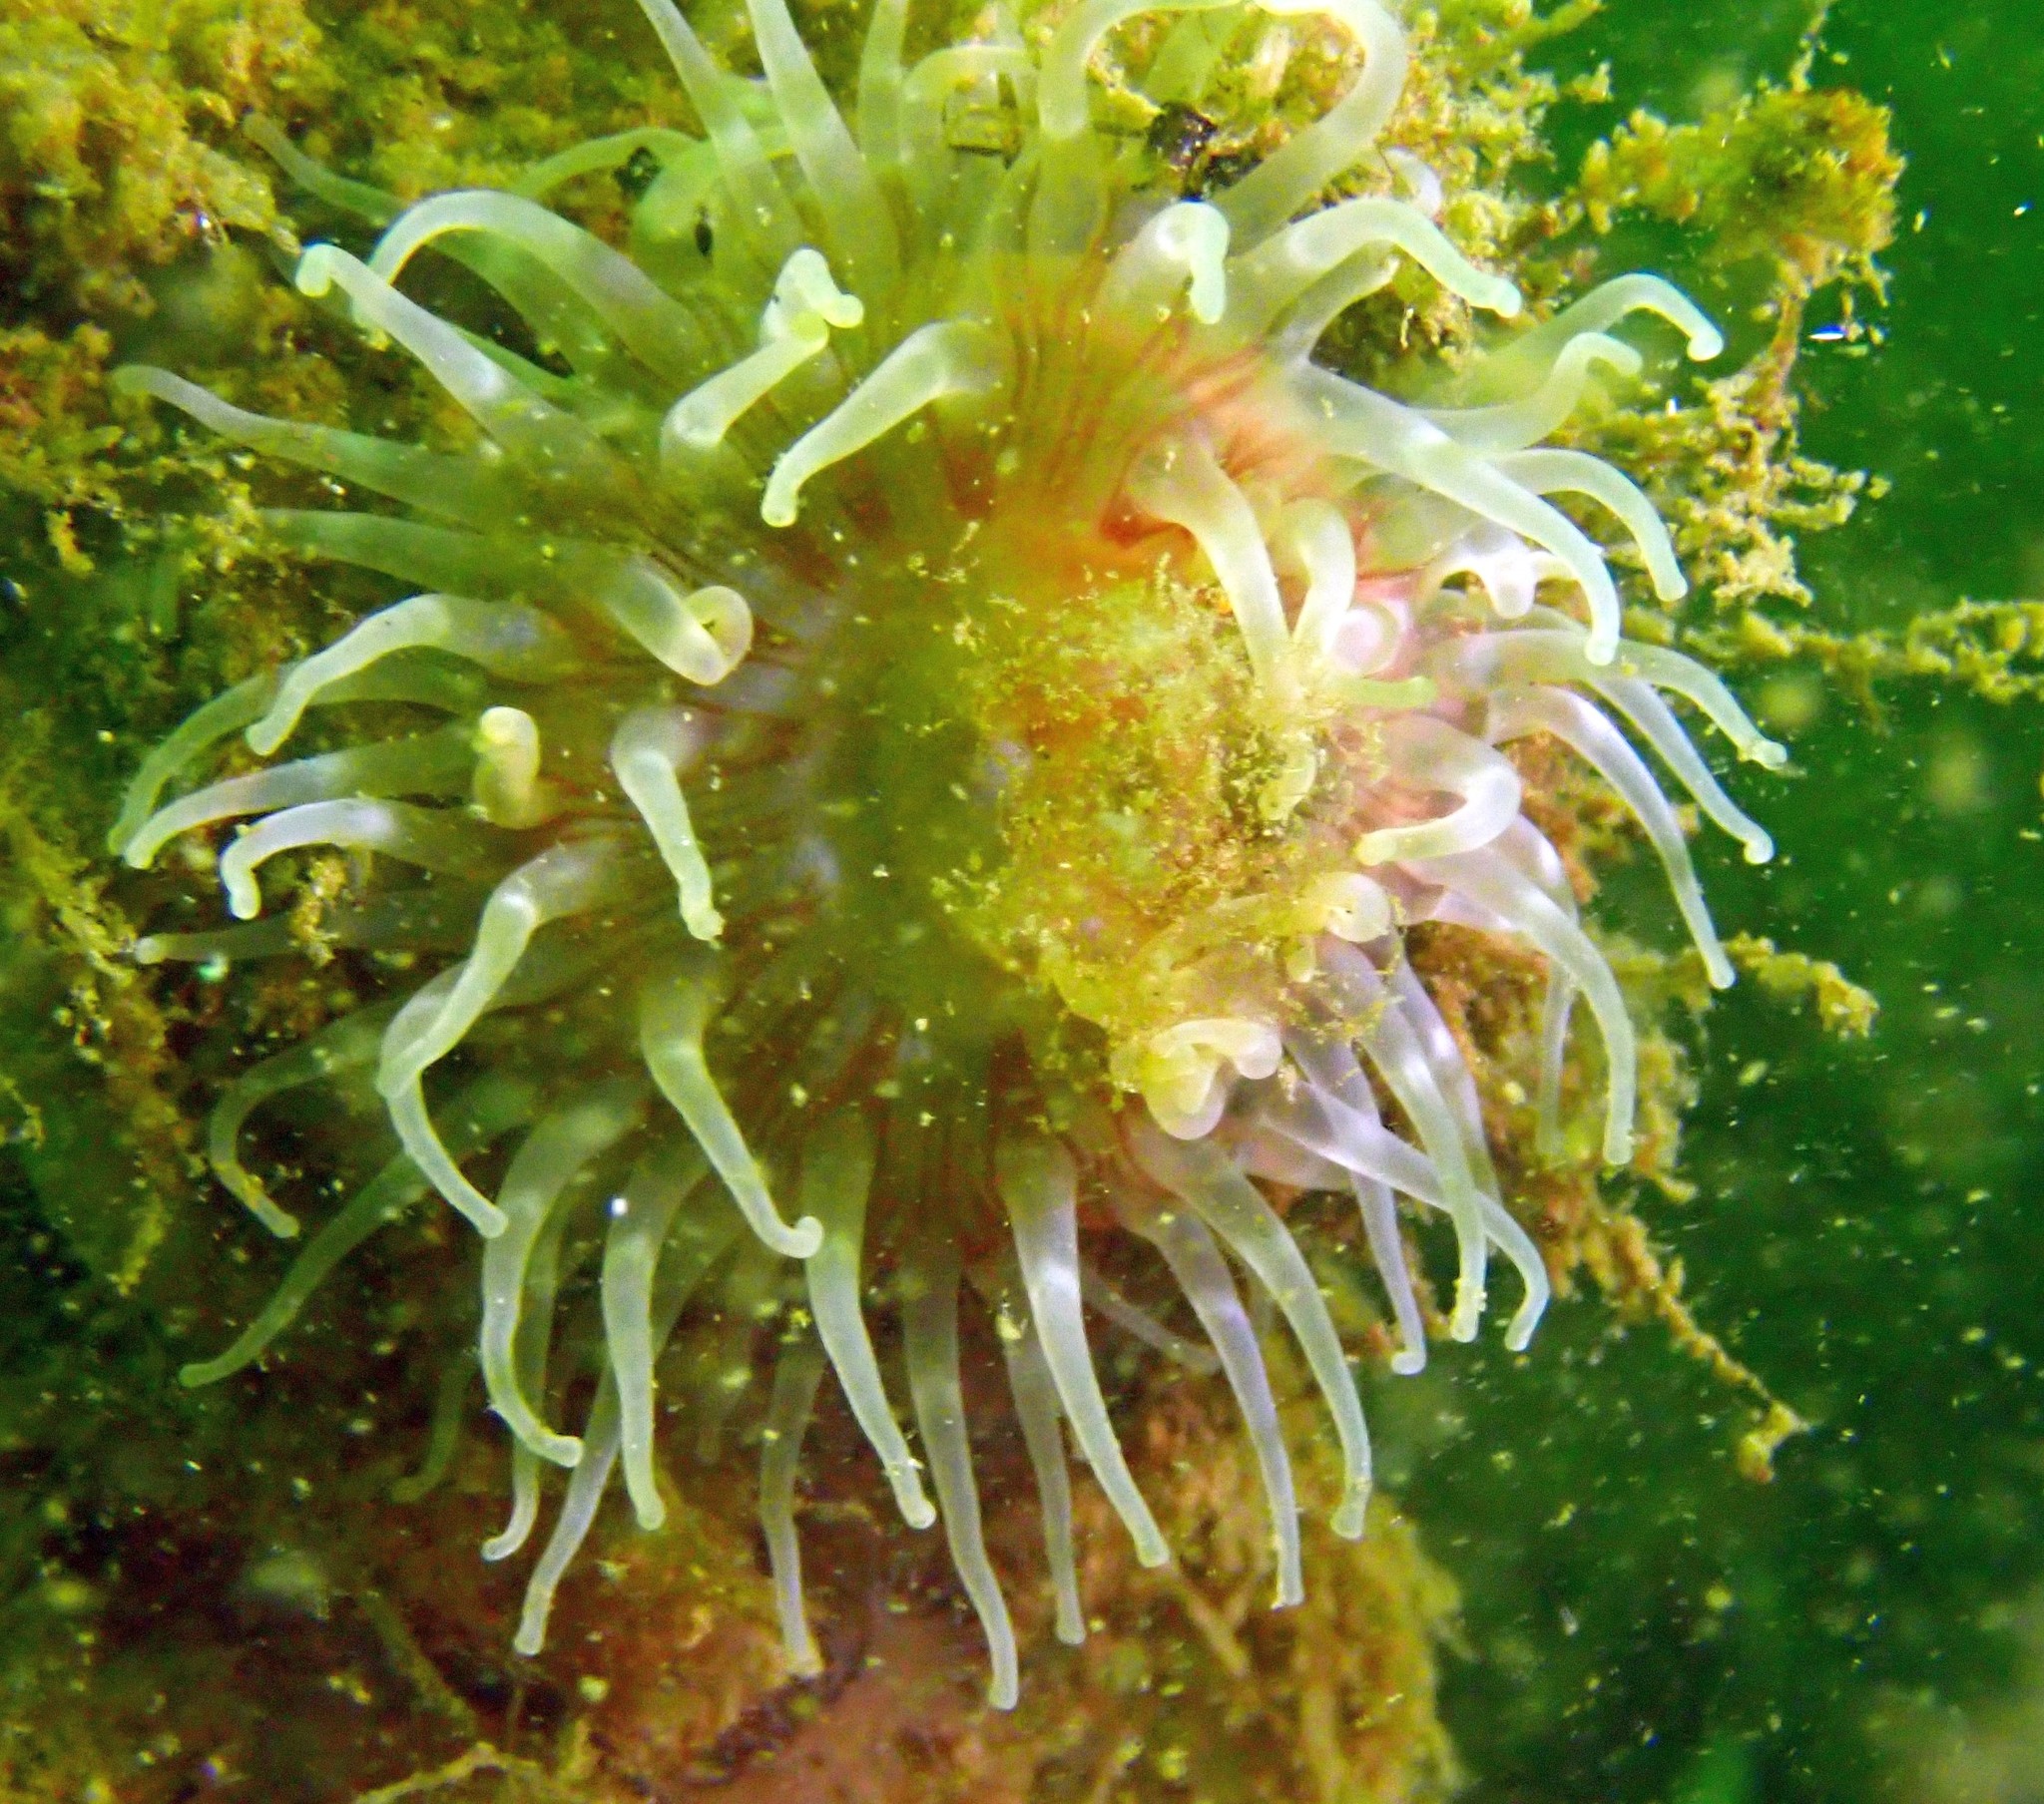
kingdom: Animalia
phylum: Cnidaria
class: Anthozoa
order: Actiniaria
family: Actiniidae
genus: Urticina
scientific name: Urticina felina
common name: Dahlia anemone
